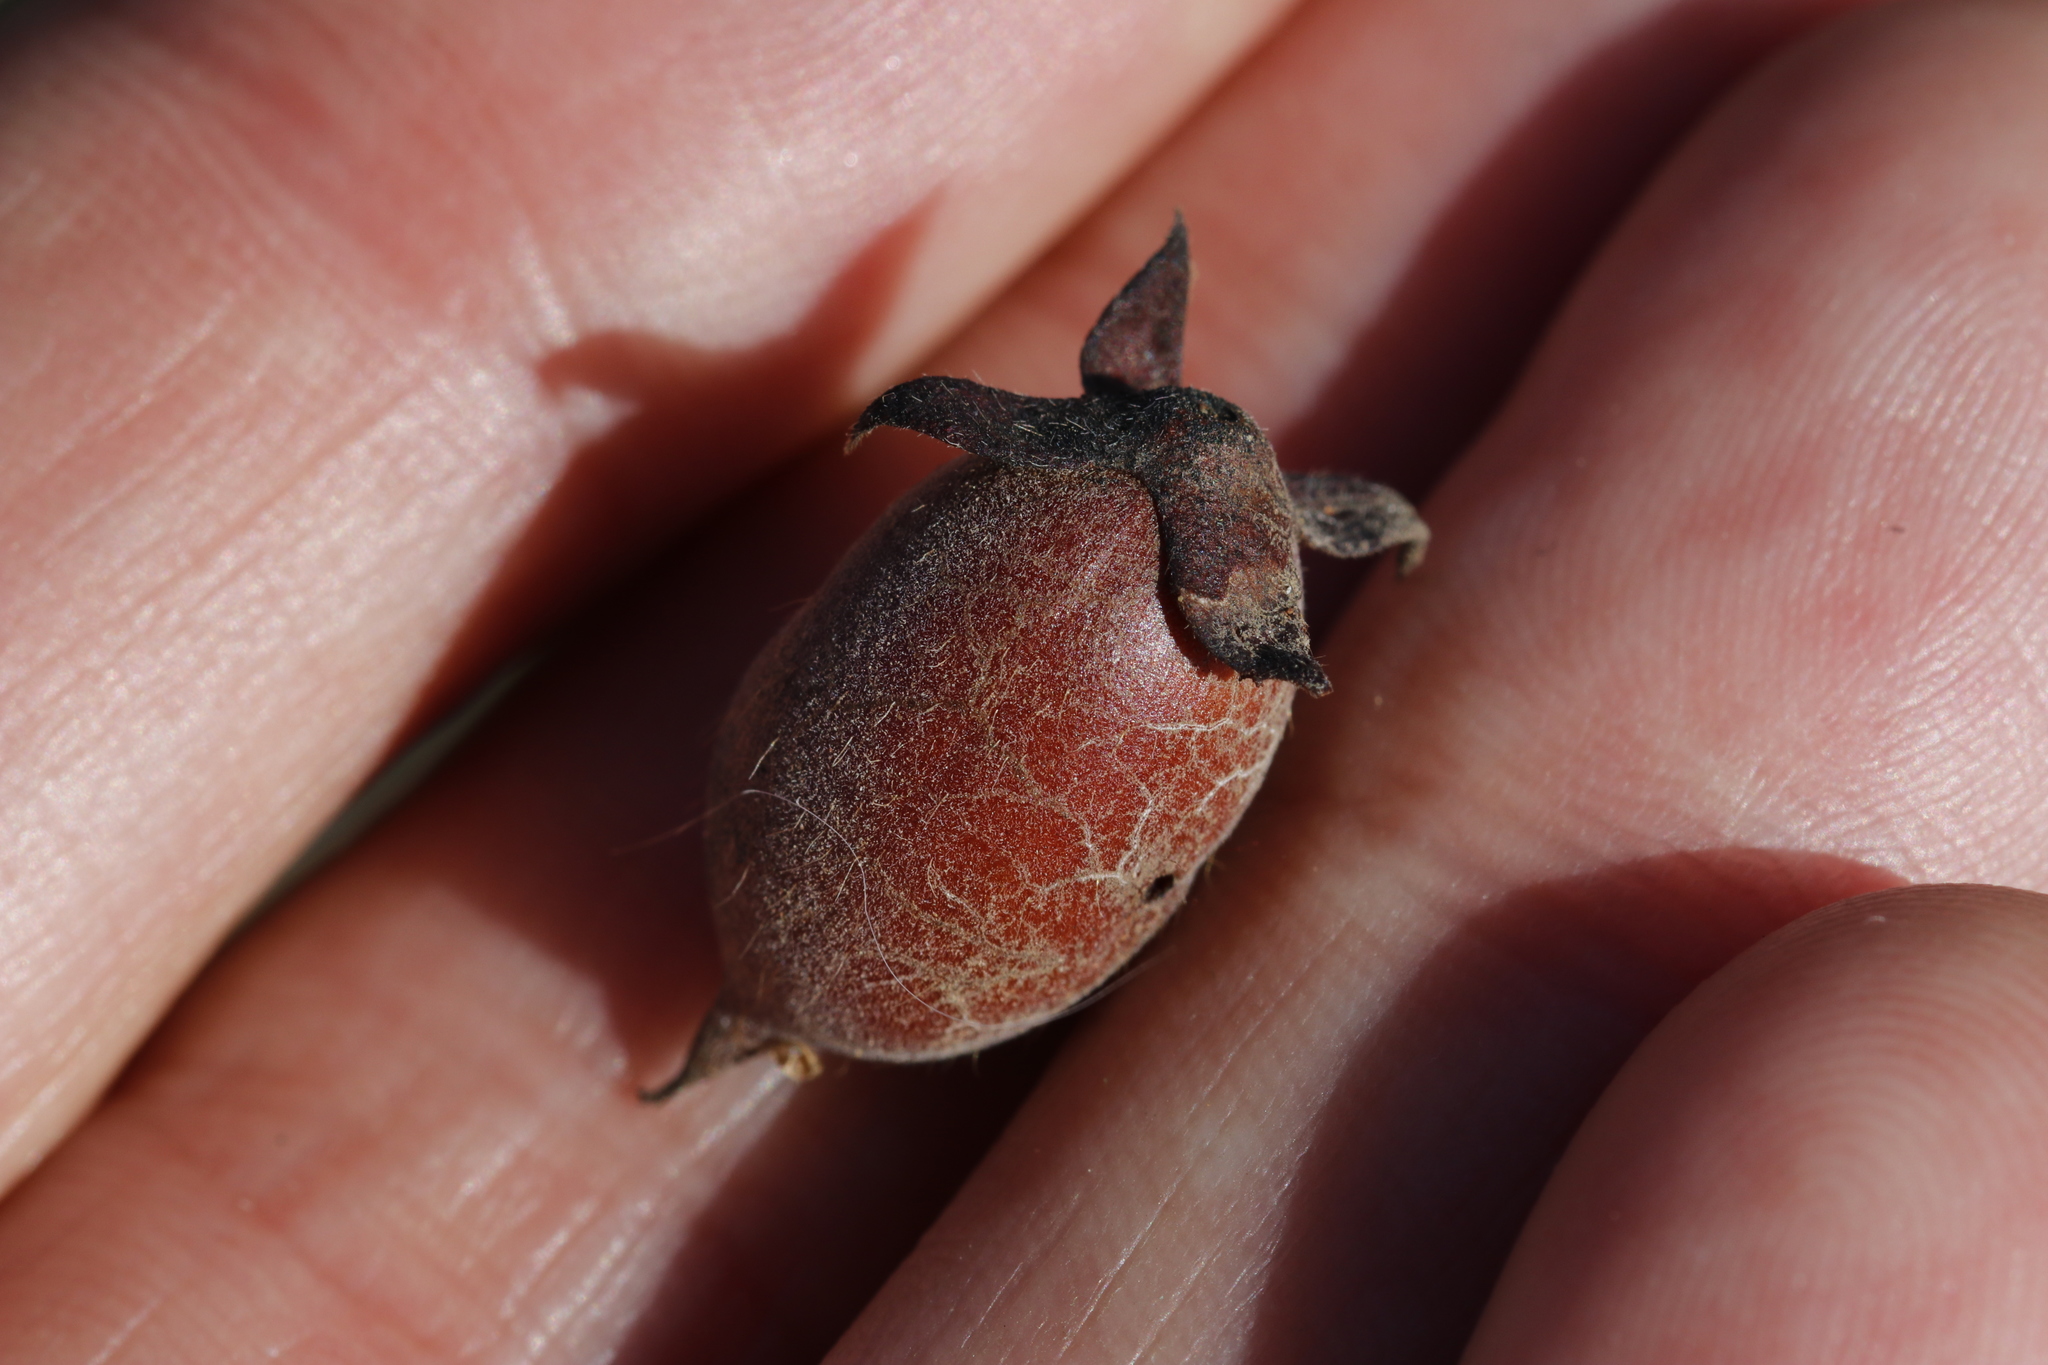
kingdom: Plantae
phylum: Tracheophyta
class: Magnoliopsida
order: Ericales
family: Ebenaceae
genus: Diospyros
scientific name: Diospyros lycioides
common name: Red star apple
